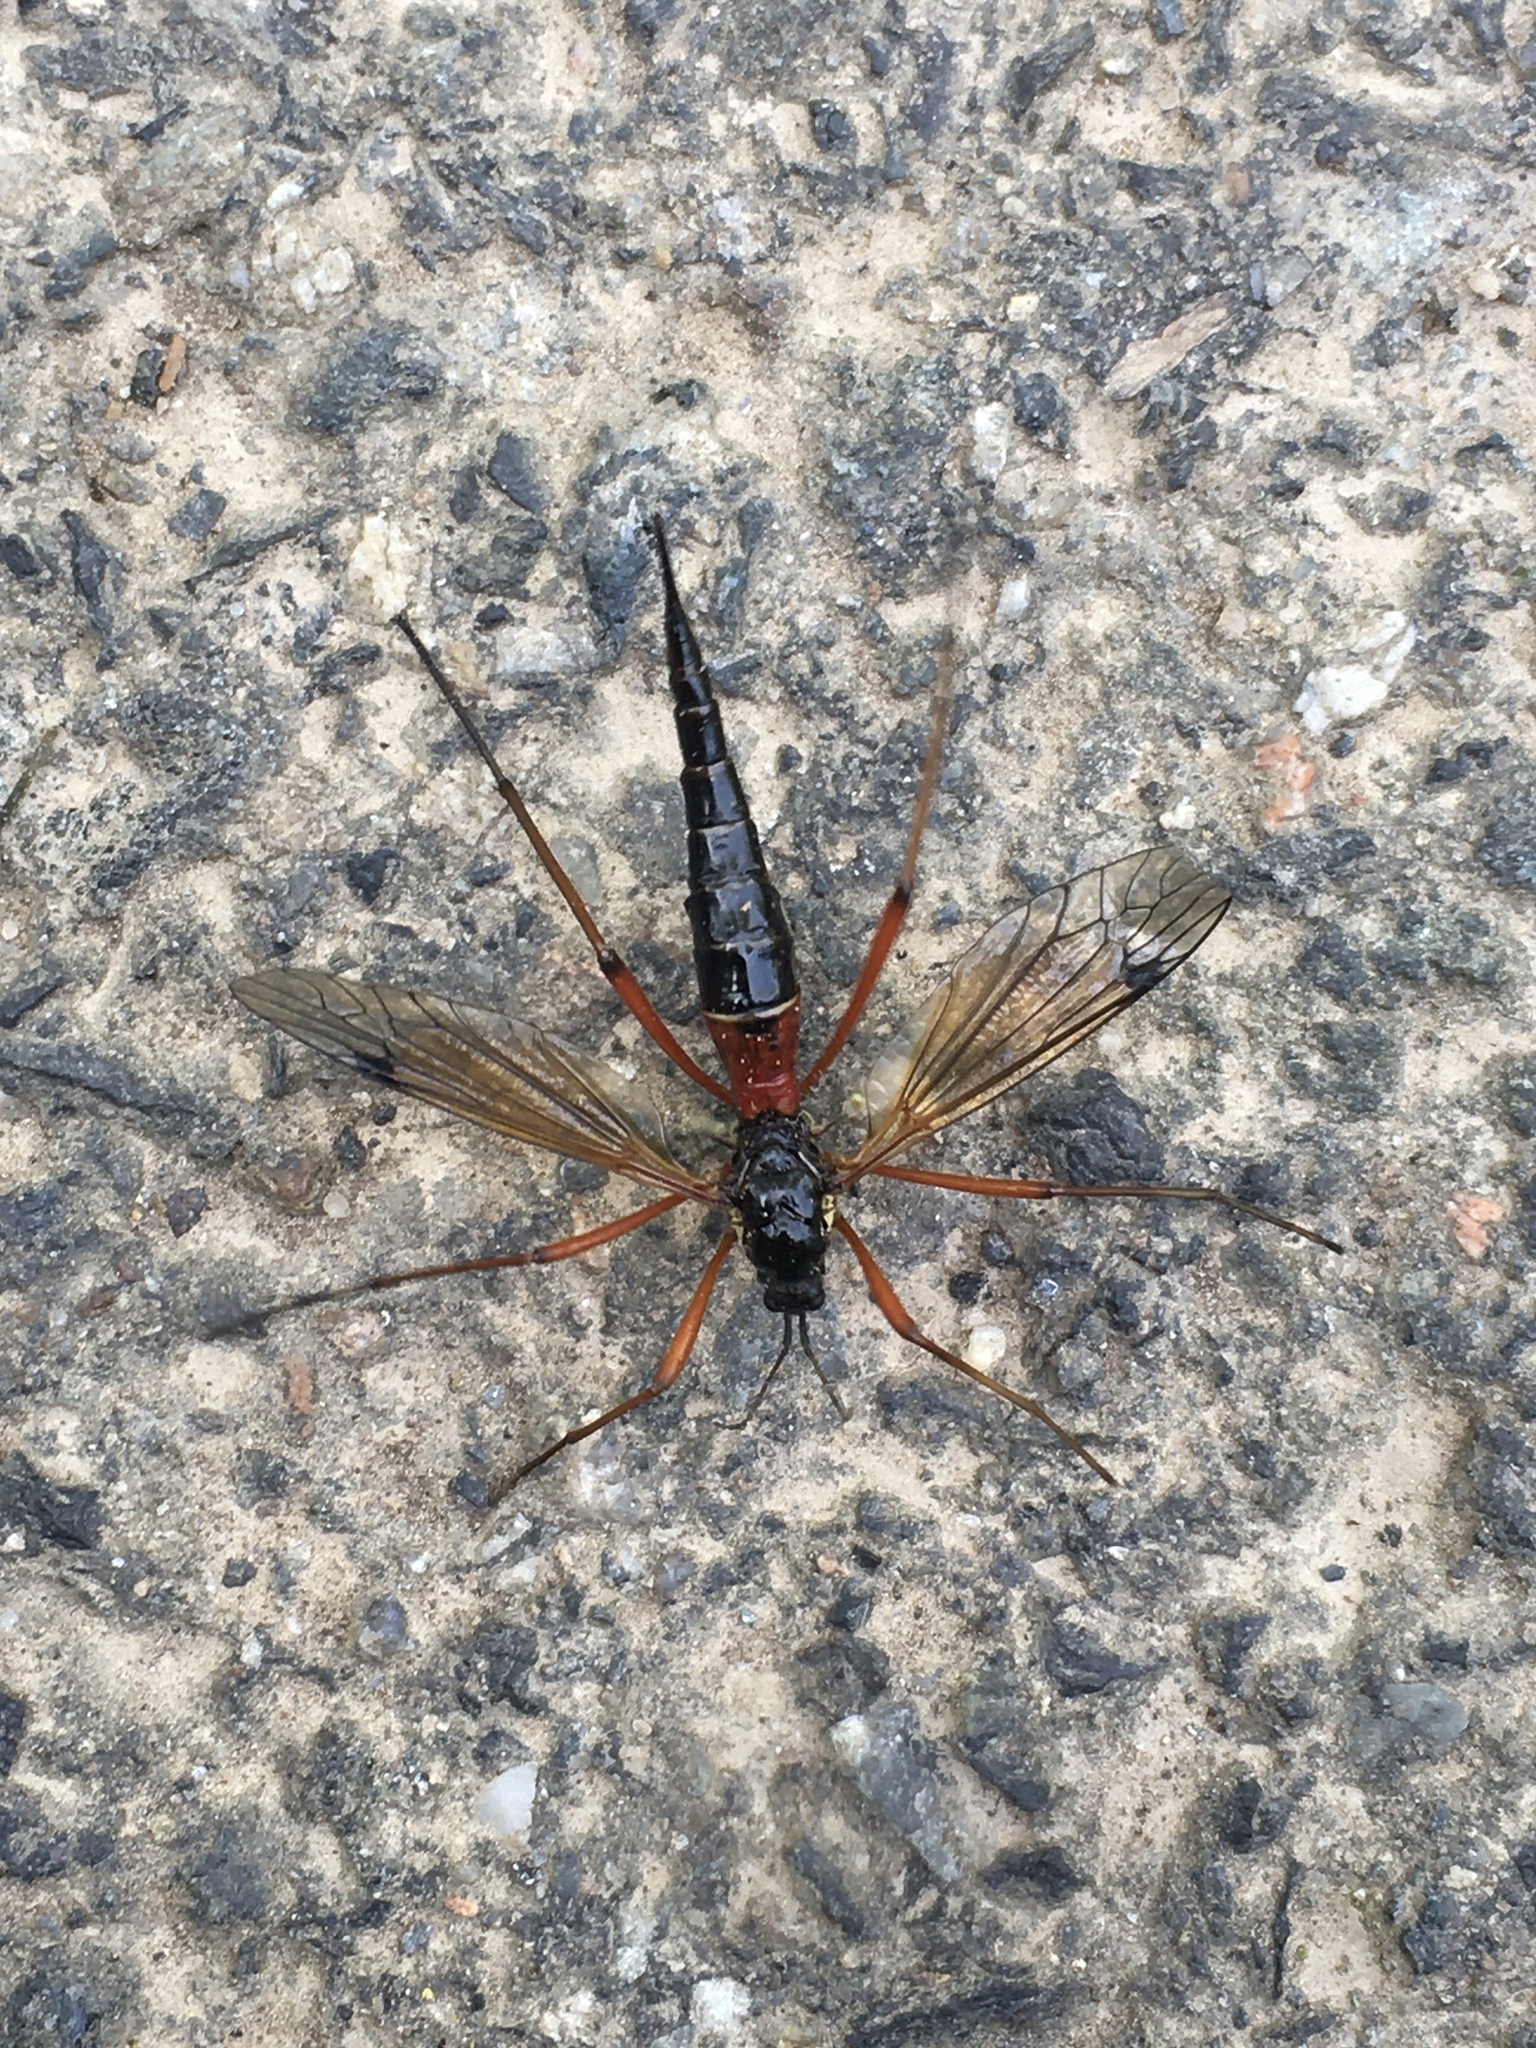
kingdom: Animalia
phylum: Arthropoda
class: Insecta
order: Diptera
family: Tipulidae
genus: Tanyptera
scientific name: Tanyptera atrata
